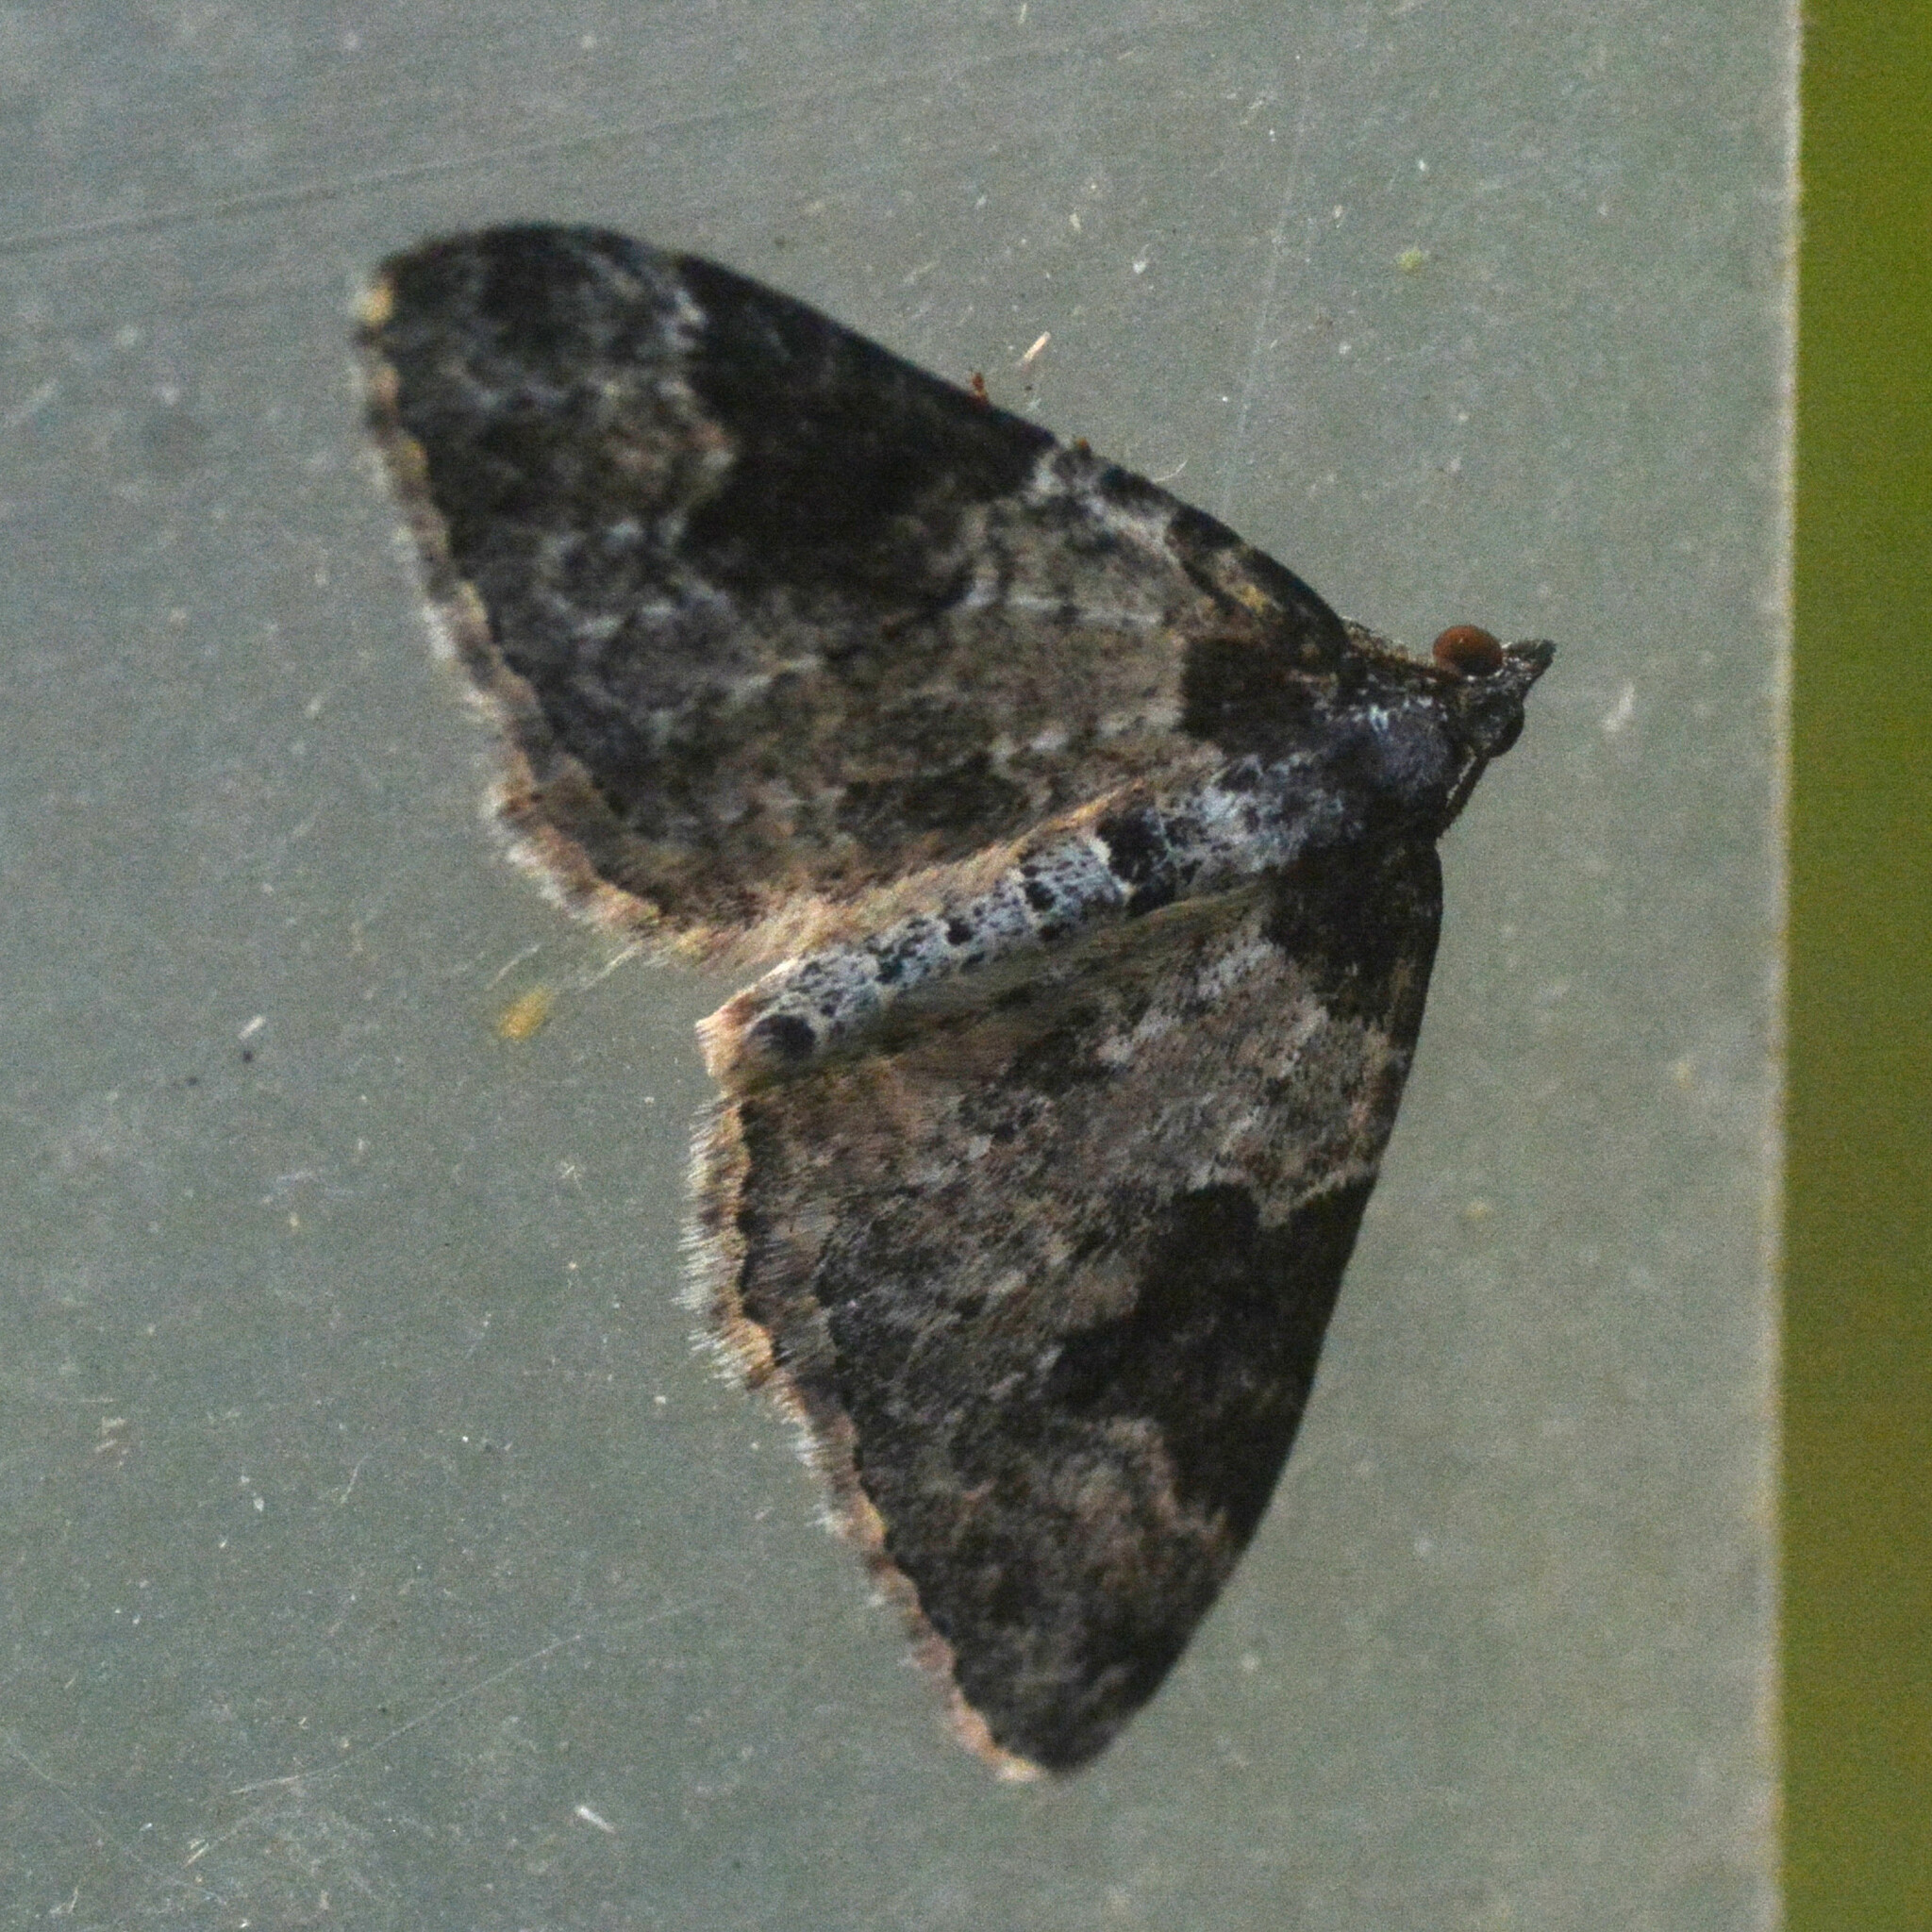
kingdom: Animalia
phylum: Arthropoda
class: Insecta
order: Lepidoptera
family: Geometridae
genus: Xanthorhoe
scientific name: Xanthorhoe fluctuata
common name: Garden carpet
